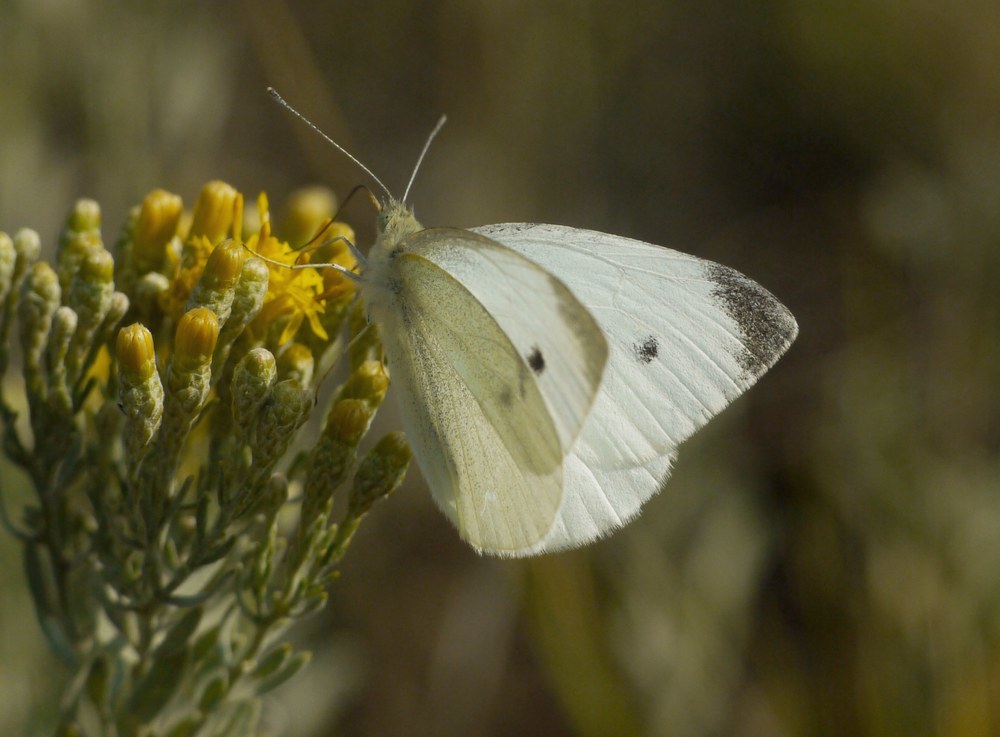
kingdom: Animalia
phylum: Arthropoda
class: Insecta
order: Lepidoptera
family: Pieridae
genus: Pieris
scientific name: Pieris rapae
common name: Small white
